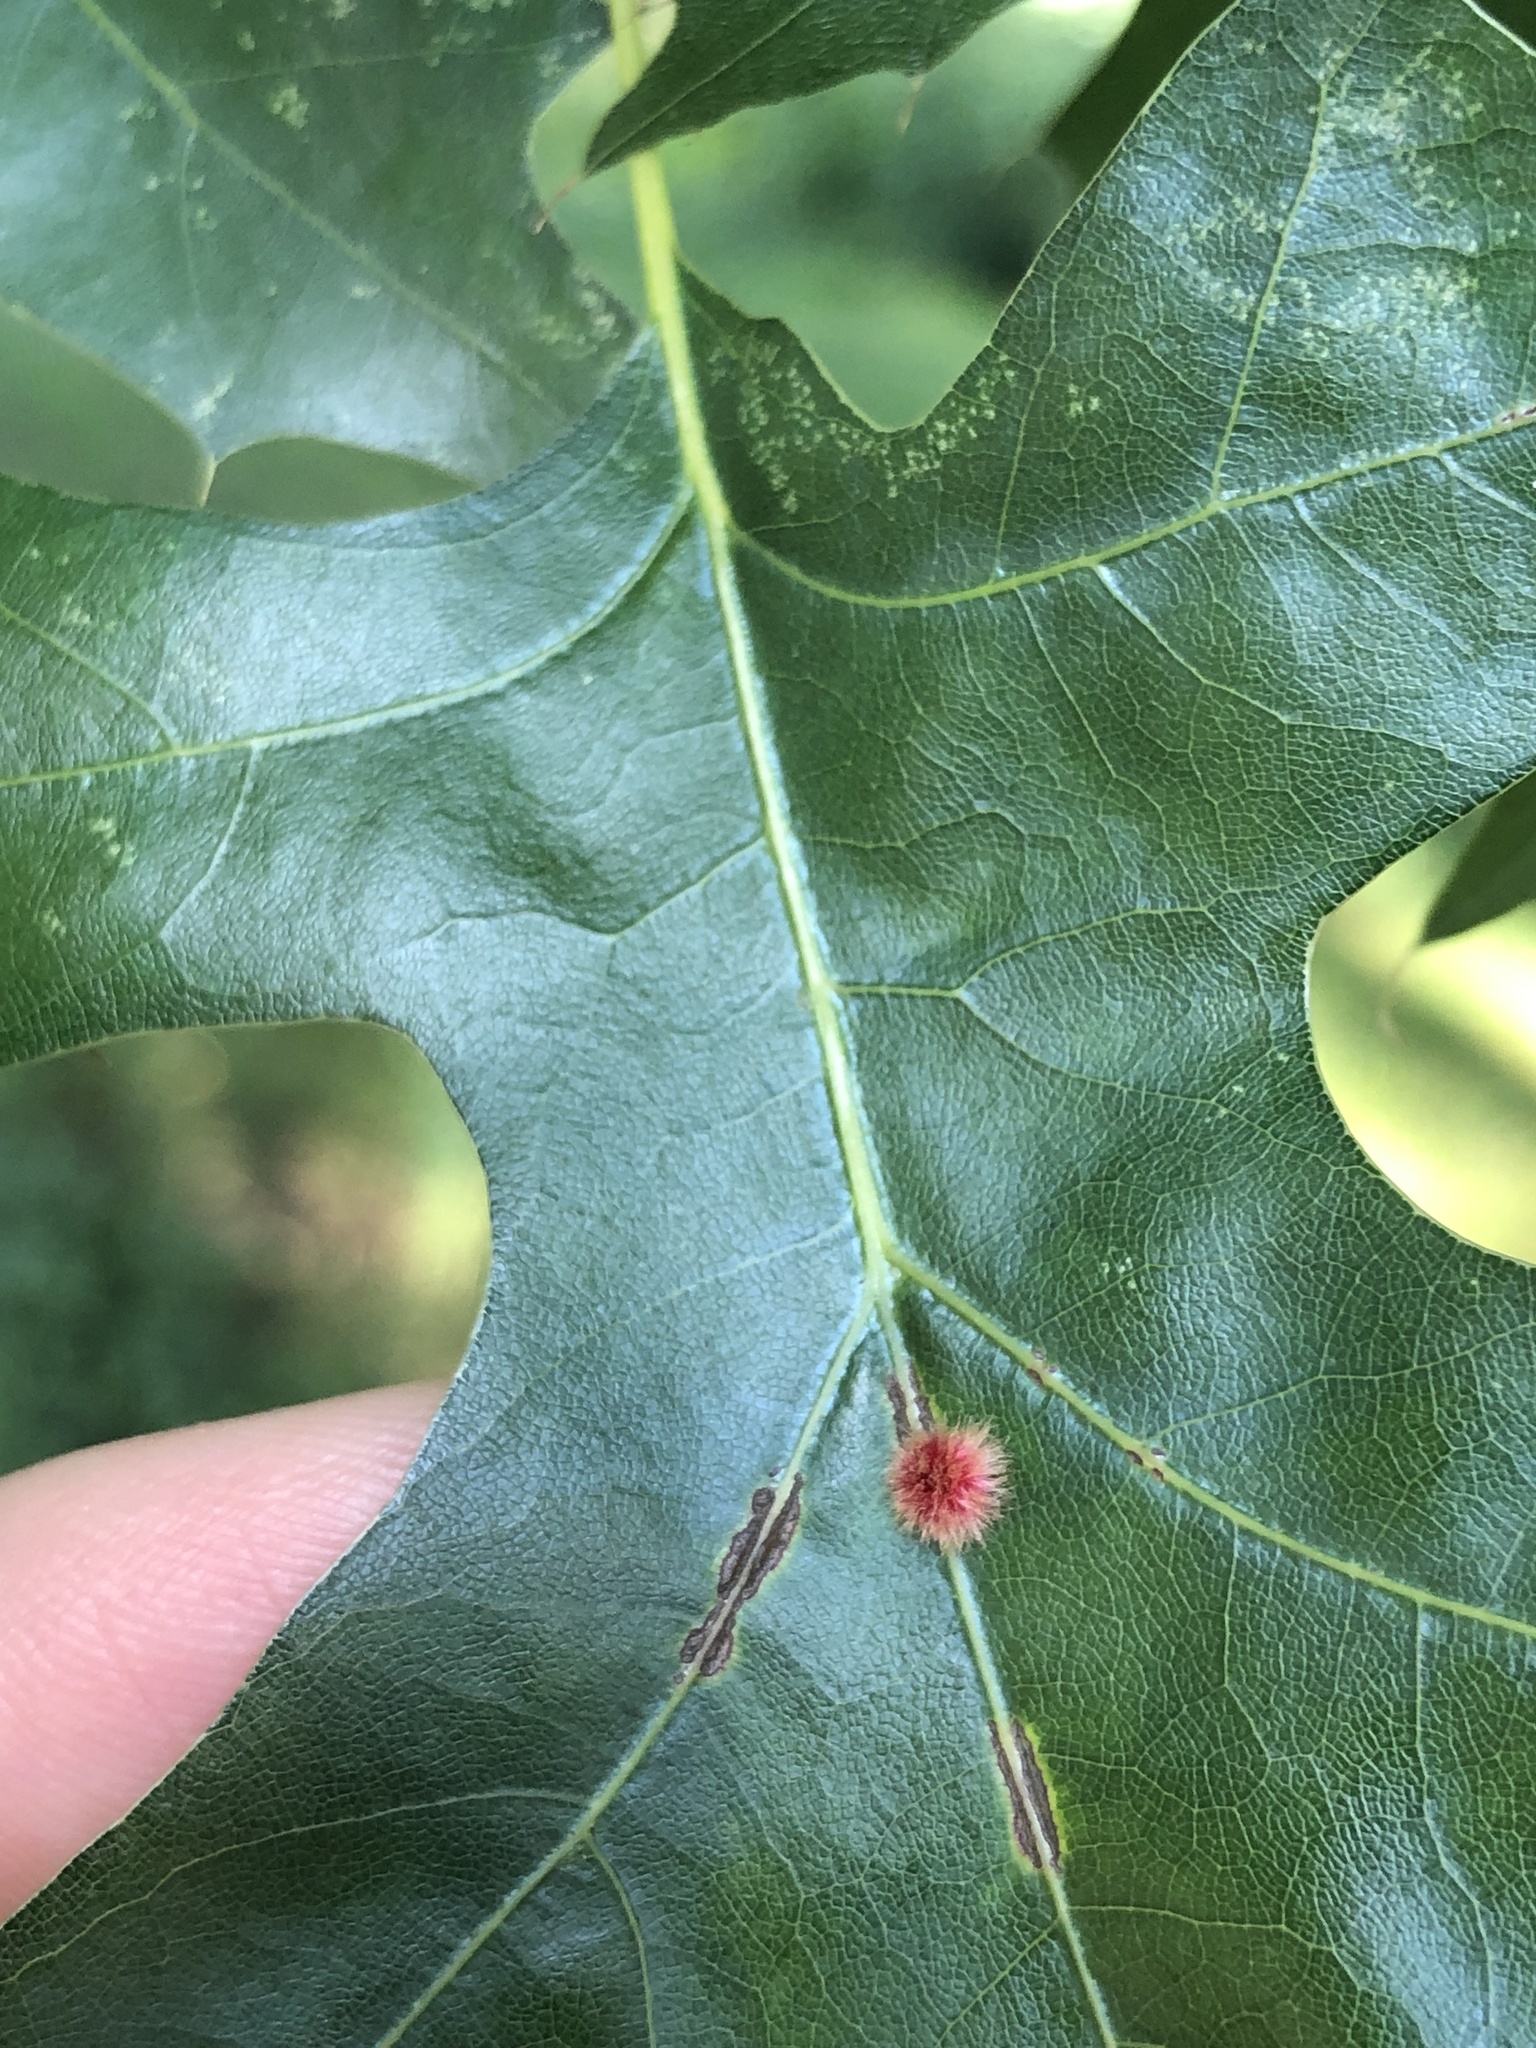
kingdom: Animalia
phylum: Arthropoda
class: Insecta
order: Hymenoptera
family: Cynipidae
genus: Callirhytis
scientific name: Callirhytis
